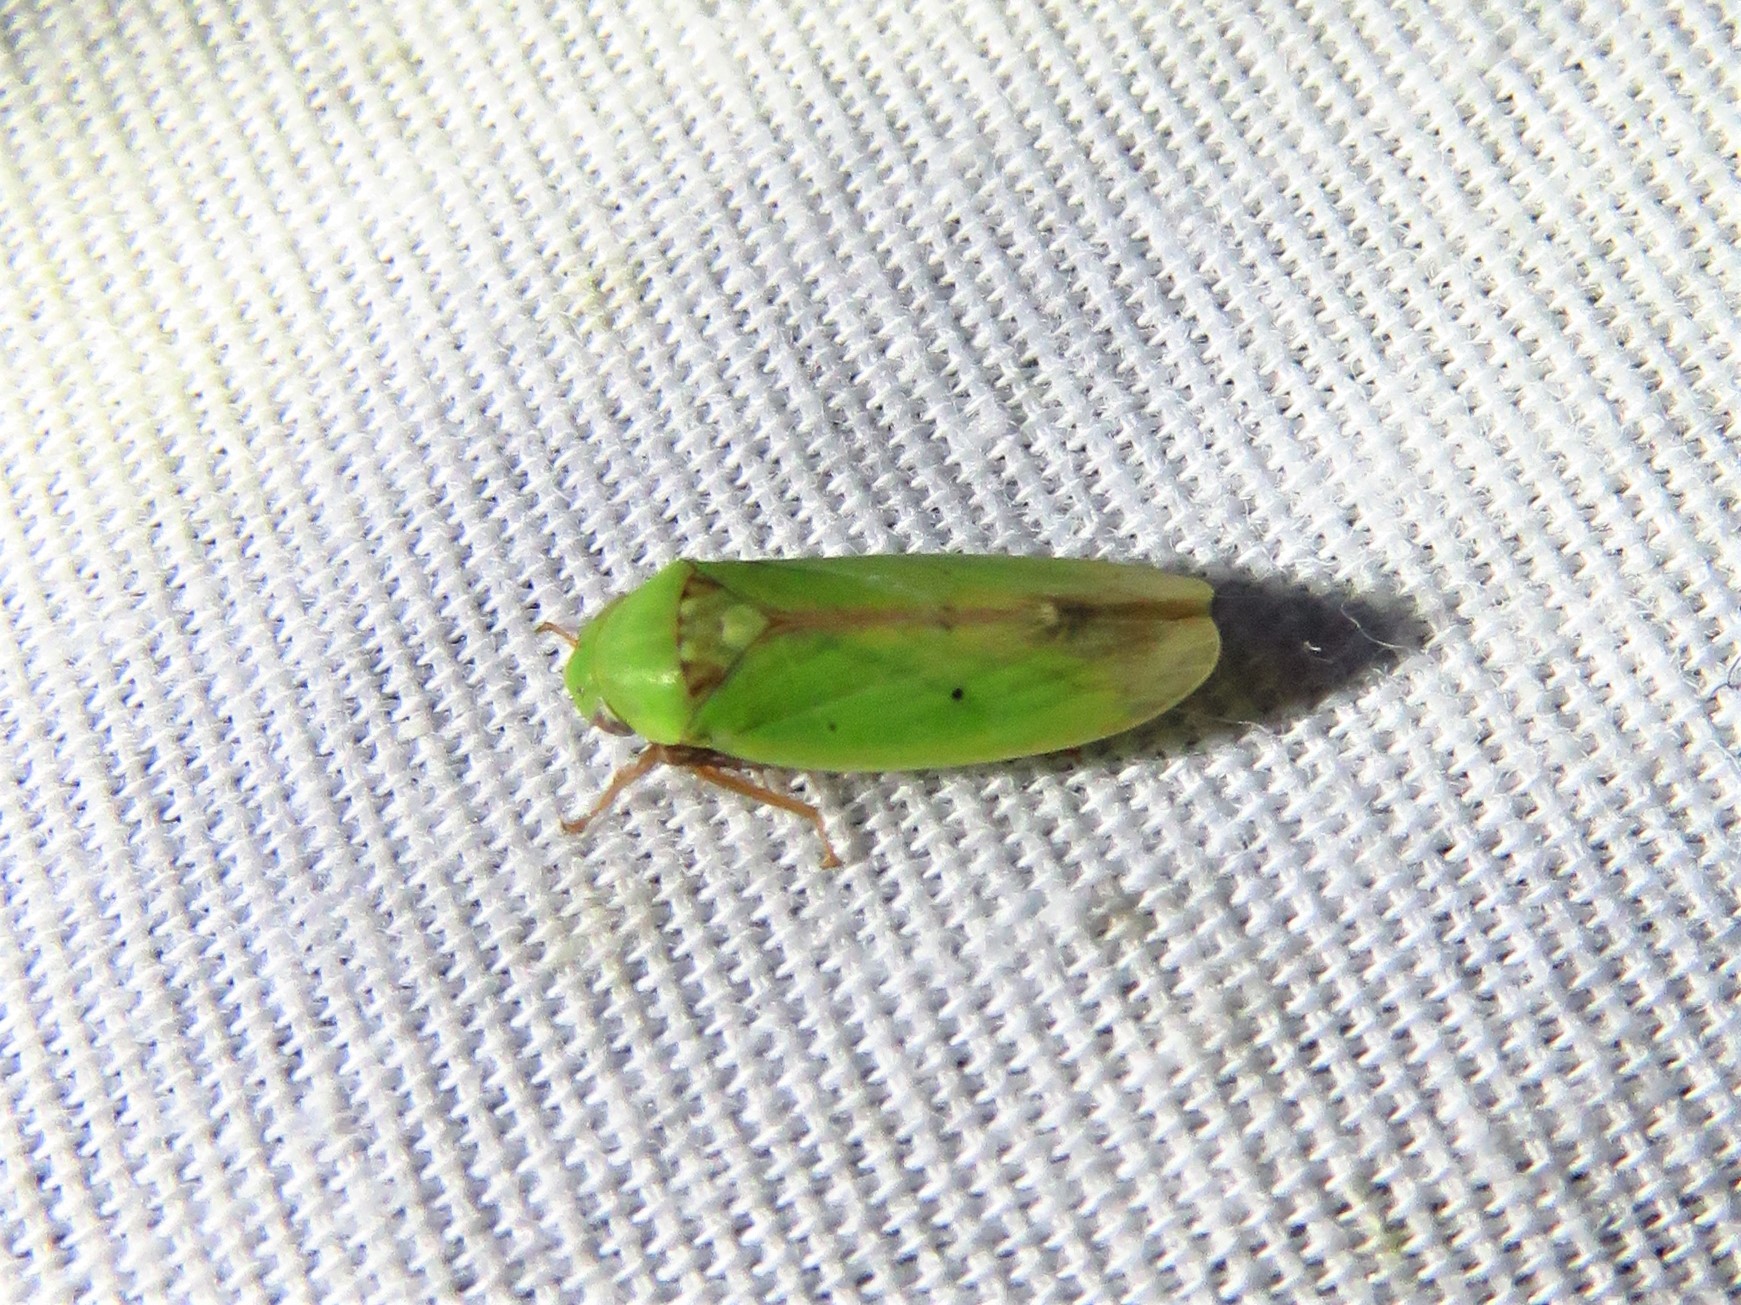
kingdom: Animalia
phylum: Arthropoda
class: Insecta
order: Hemiptera
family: Cicadellidae
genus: Ponana
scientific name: Ponana
